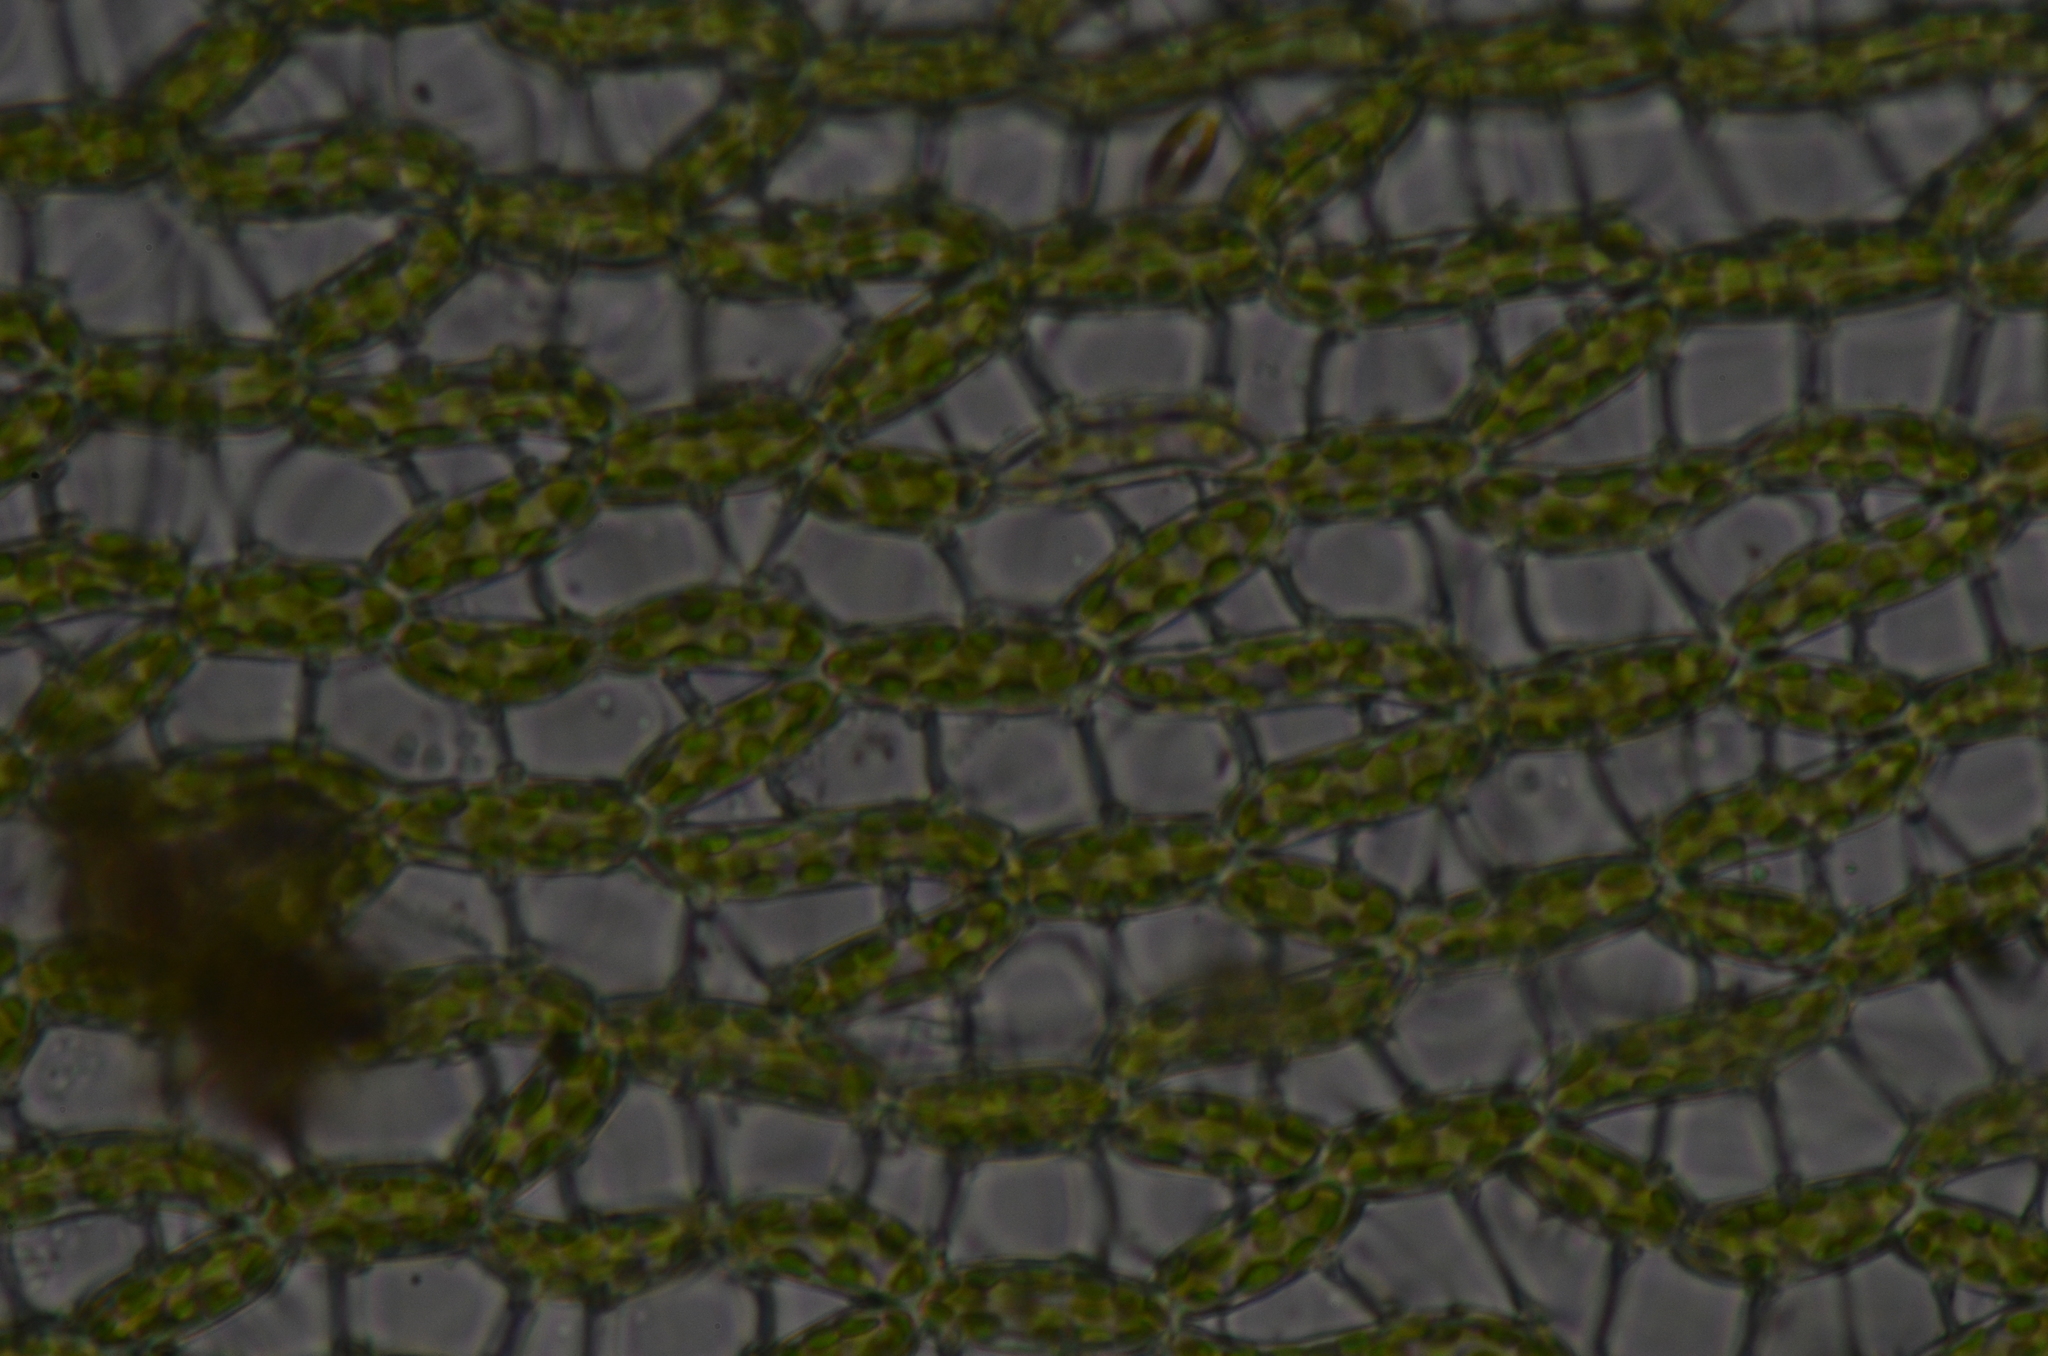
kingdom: Plantae
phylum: Bryophyta
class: Sphagnopsida
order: Sphagnales
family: Sphagnaceae
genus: Sphagnum
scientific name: Sphagnum girgensohnii
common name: Girgensohn's peat moss
